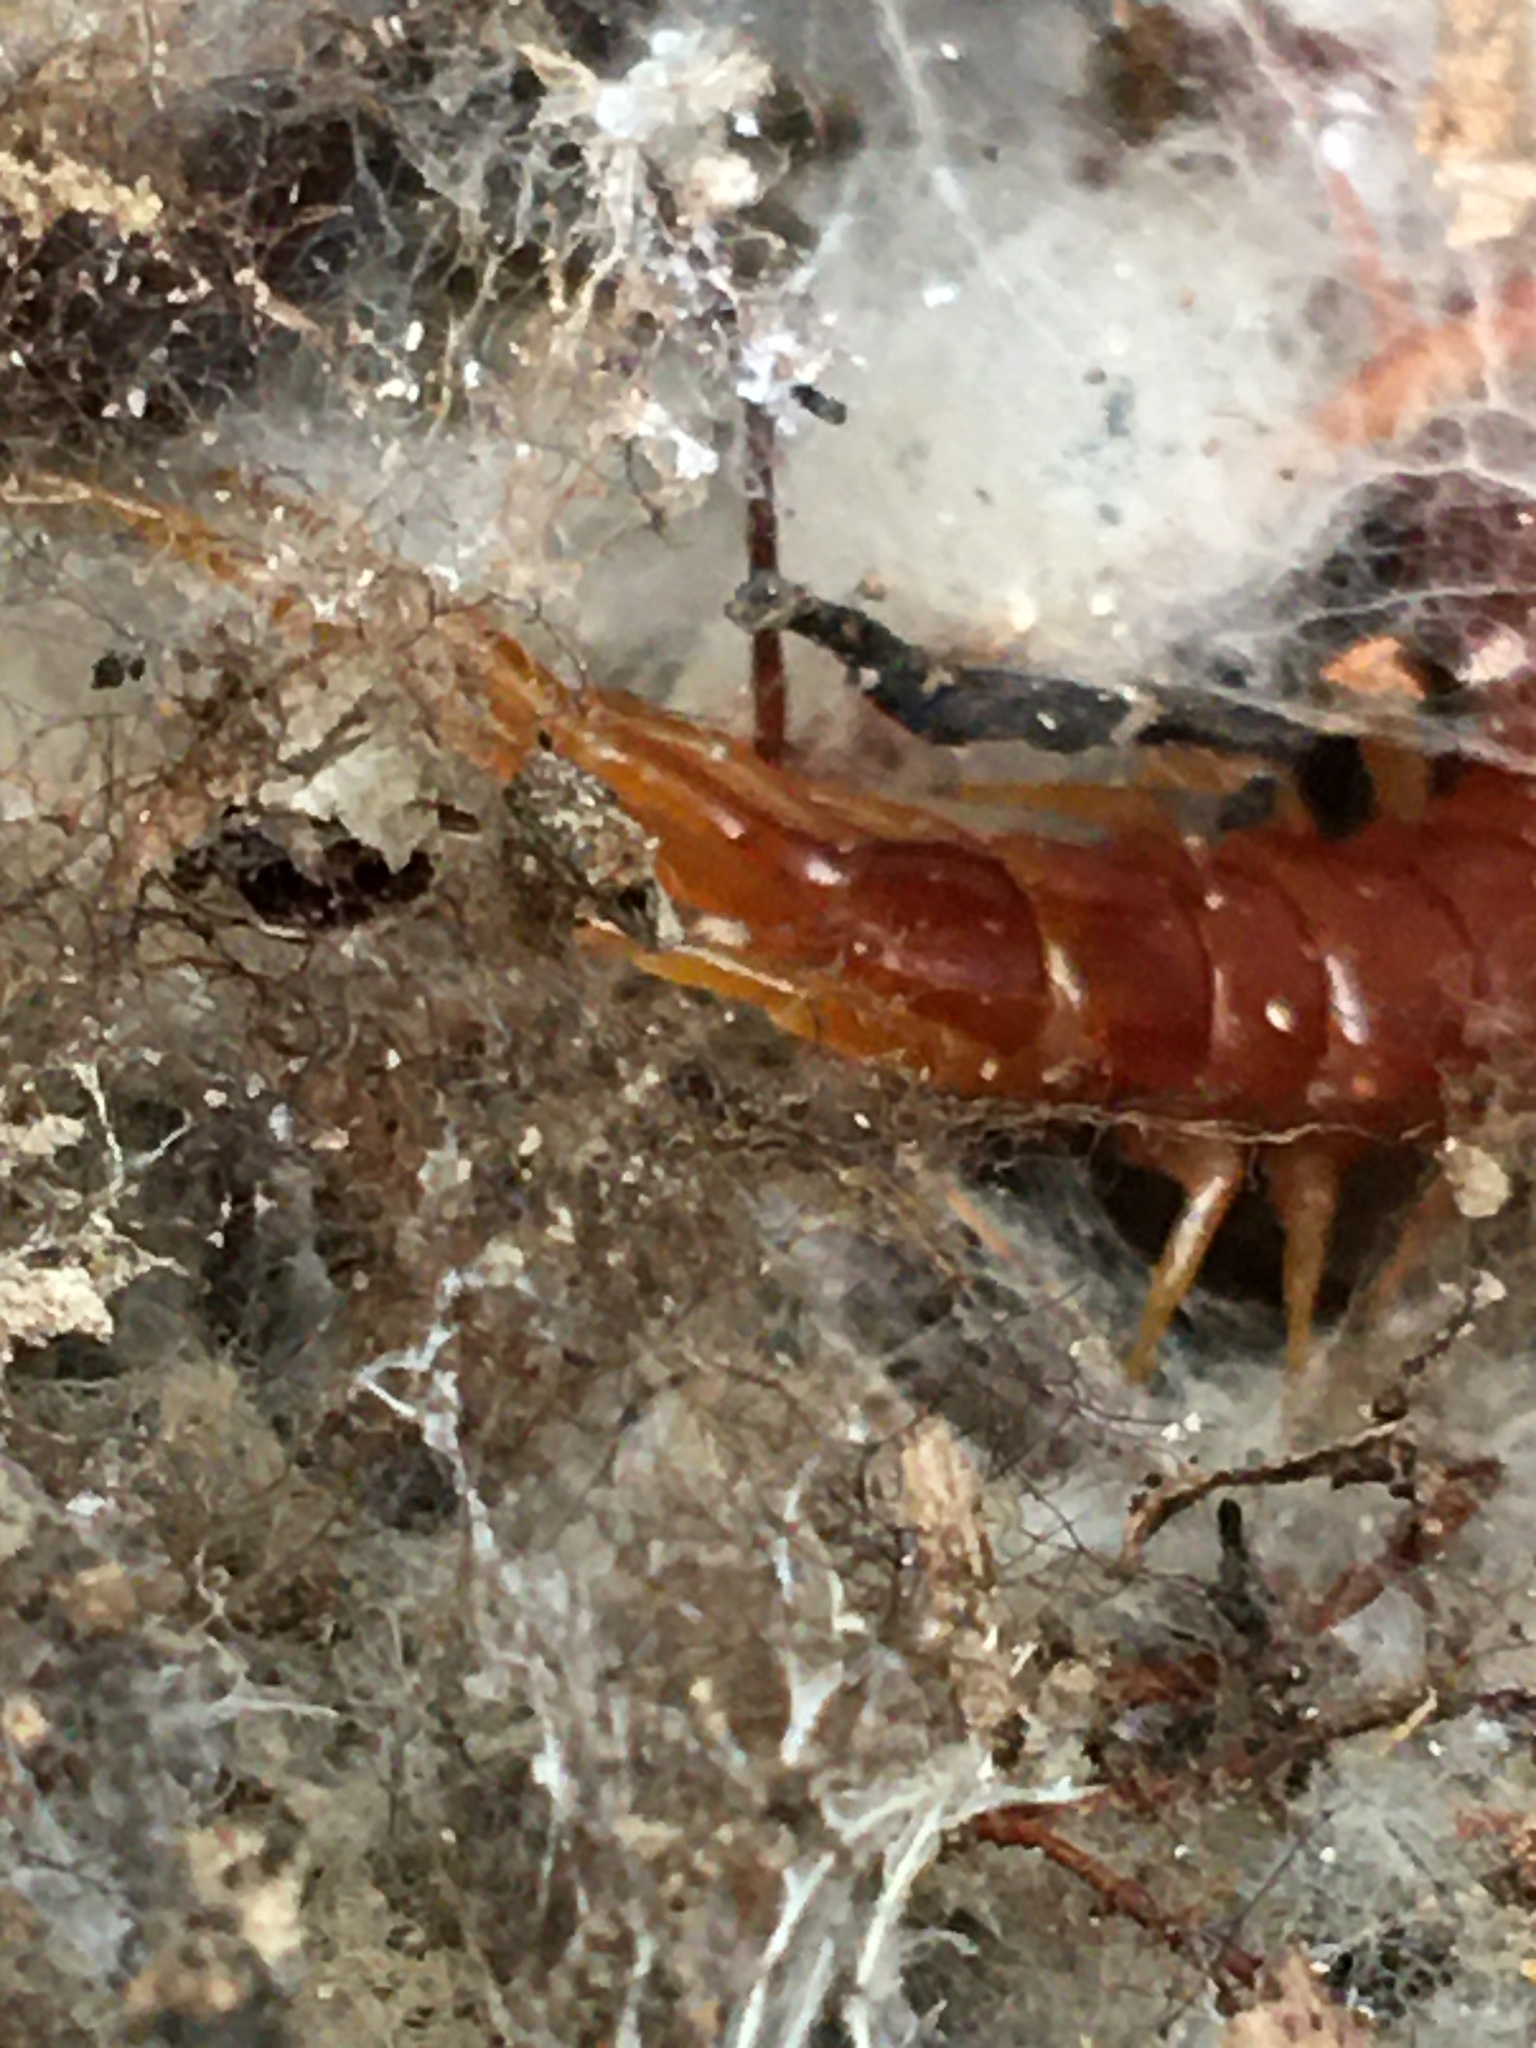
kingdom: Animalia
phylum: Arthropoda
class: Chilopoda
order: Scolopendromorpha
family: Scolopocryptopidae
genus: Scolopocryptops
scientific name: Scolopocryptops sexspinosus
